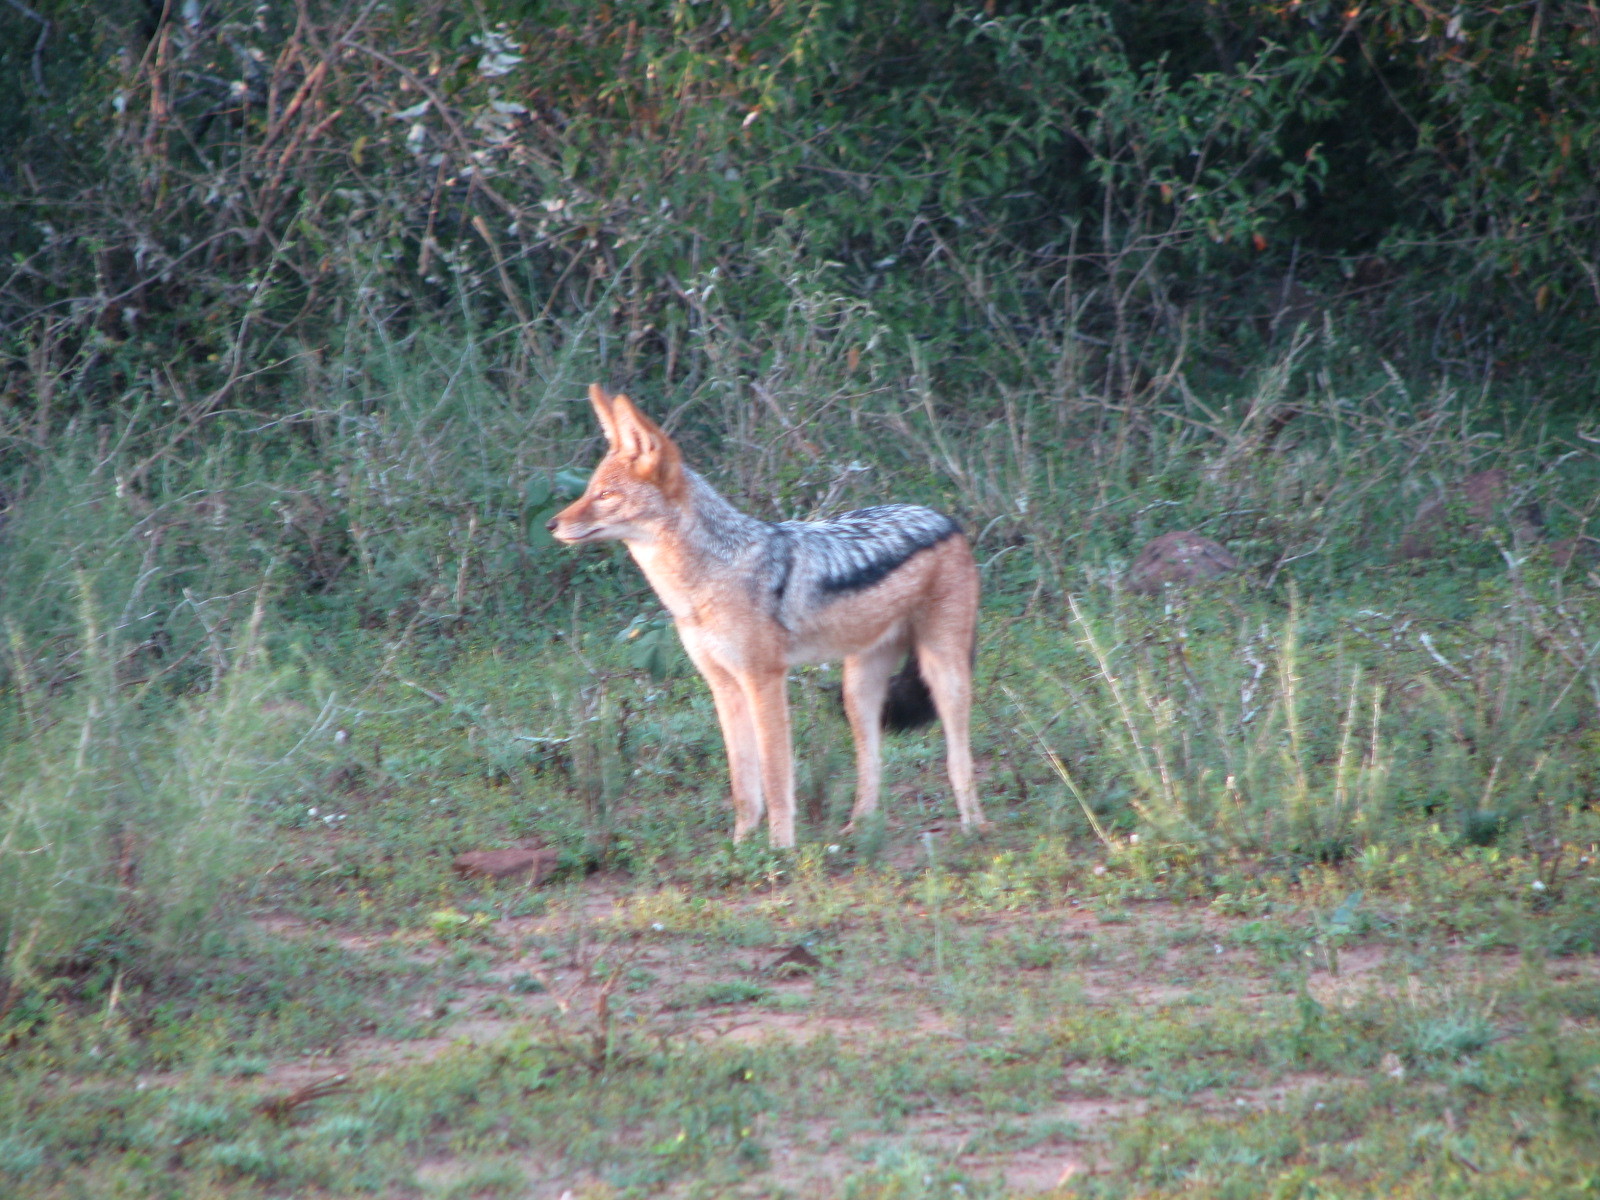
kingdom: Animalia
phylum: Chordata
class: Mammalia
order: Carnivora
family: Canidae
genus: Lupulella
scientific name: Lupulella
